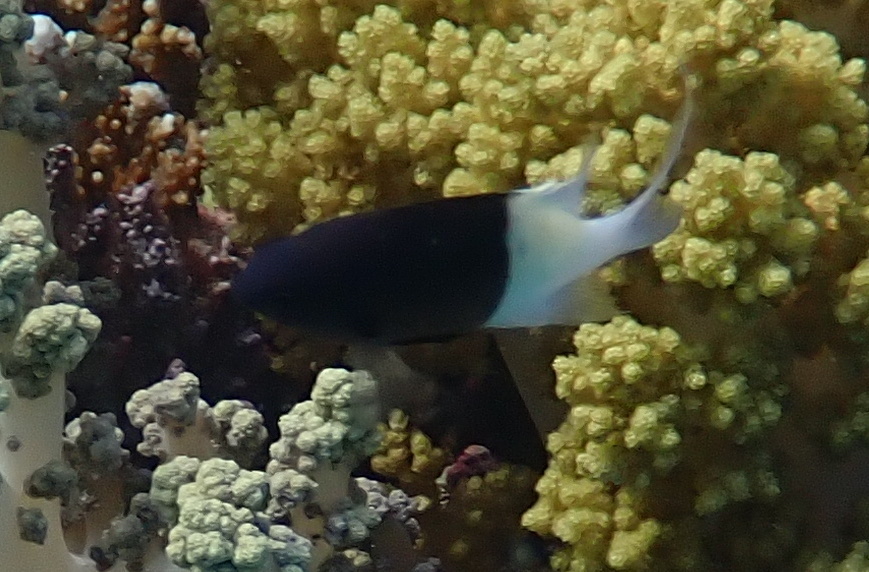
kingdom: Animalia
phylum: Chordata
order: Perciformes
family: Pomacentridae
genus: Chromis
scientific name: Chromis dimidiata
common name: Half-and-half chromis
